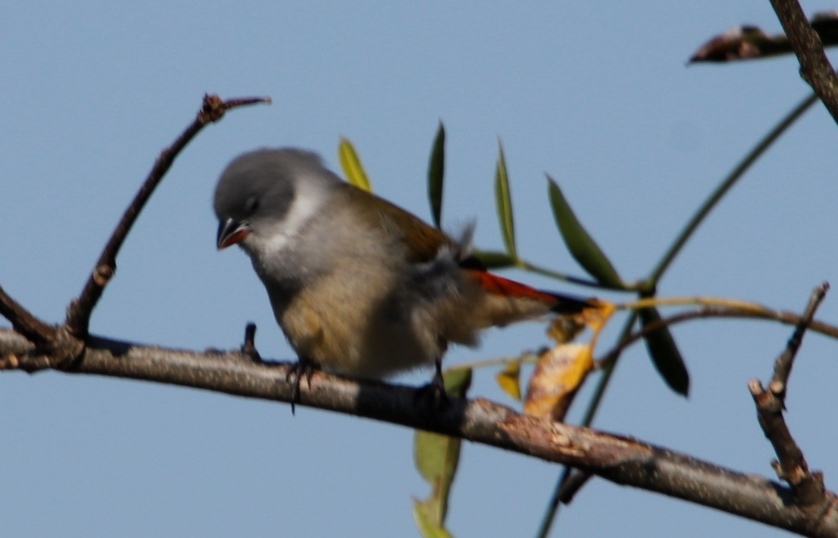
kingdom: Animalia
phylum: Chordata
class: Aves
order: Passeriformes
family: Estrildidae
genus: Coccopygia
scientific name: Coccopygia melanotis
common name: Swee waxbill
